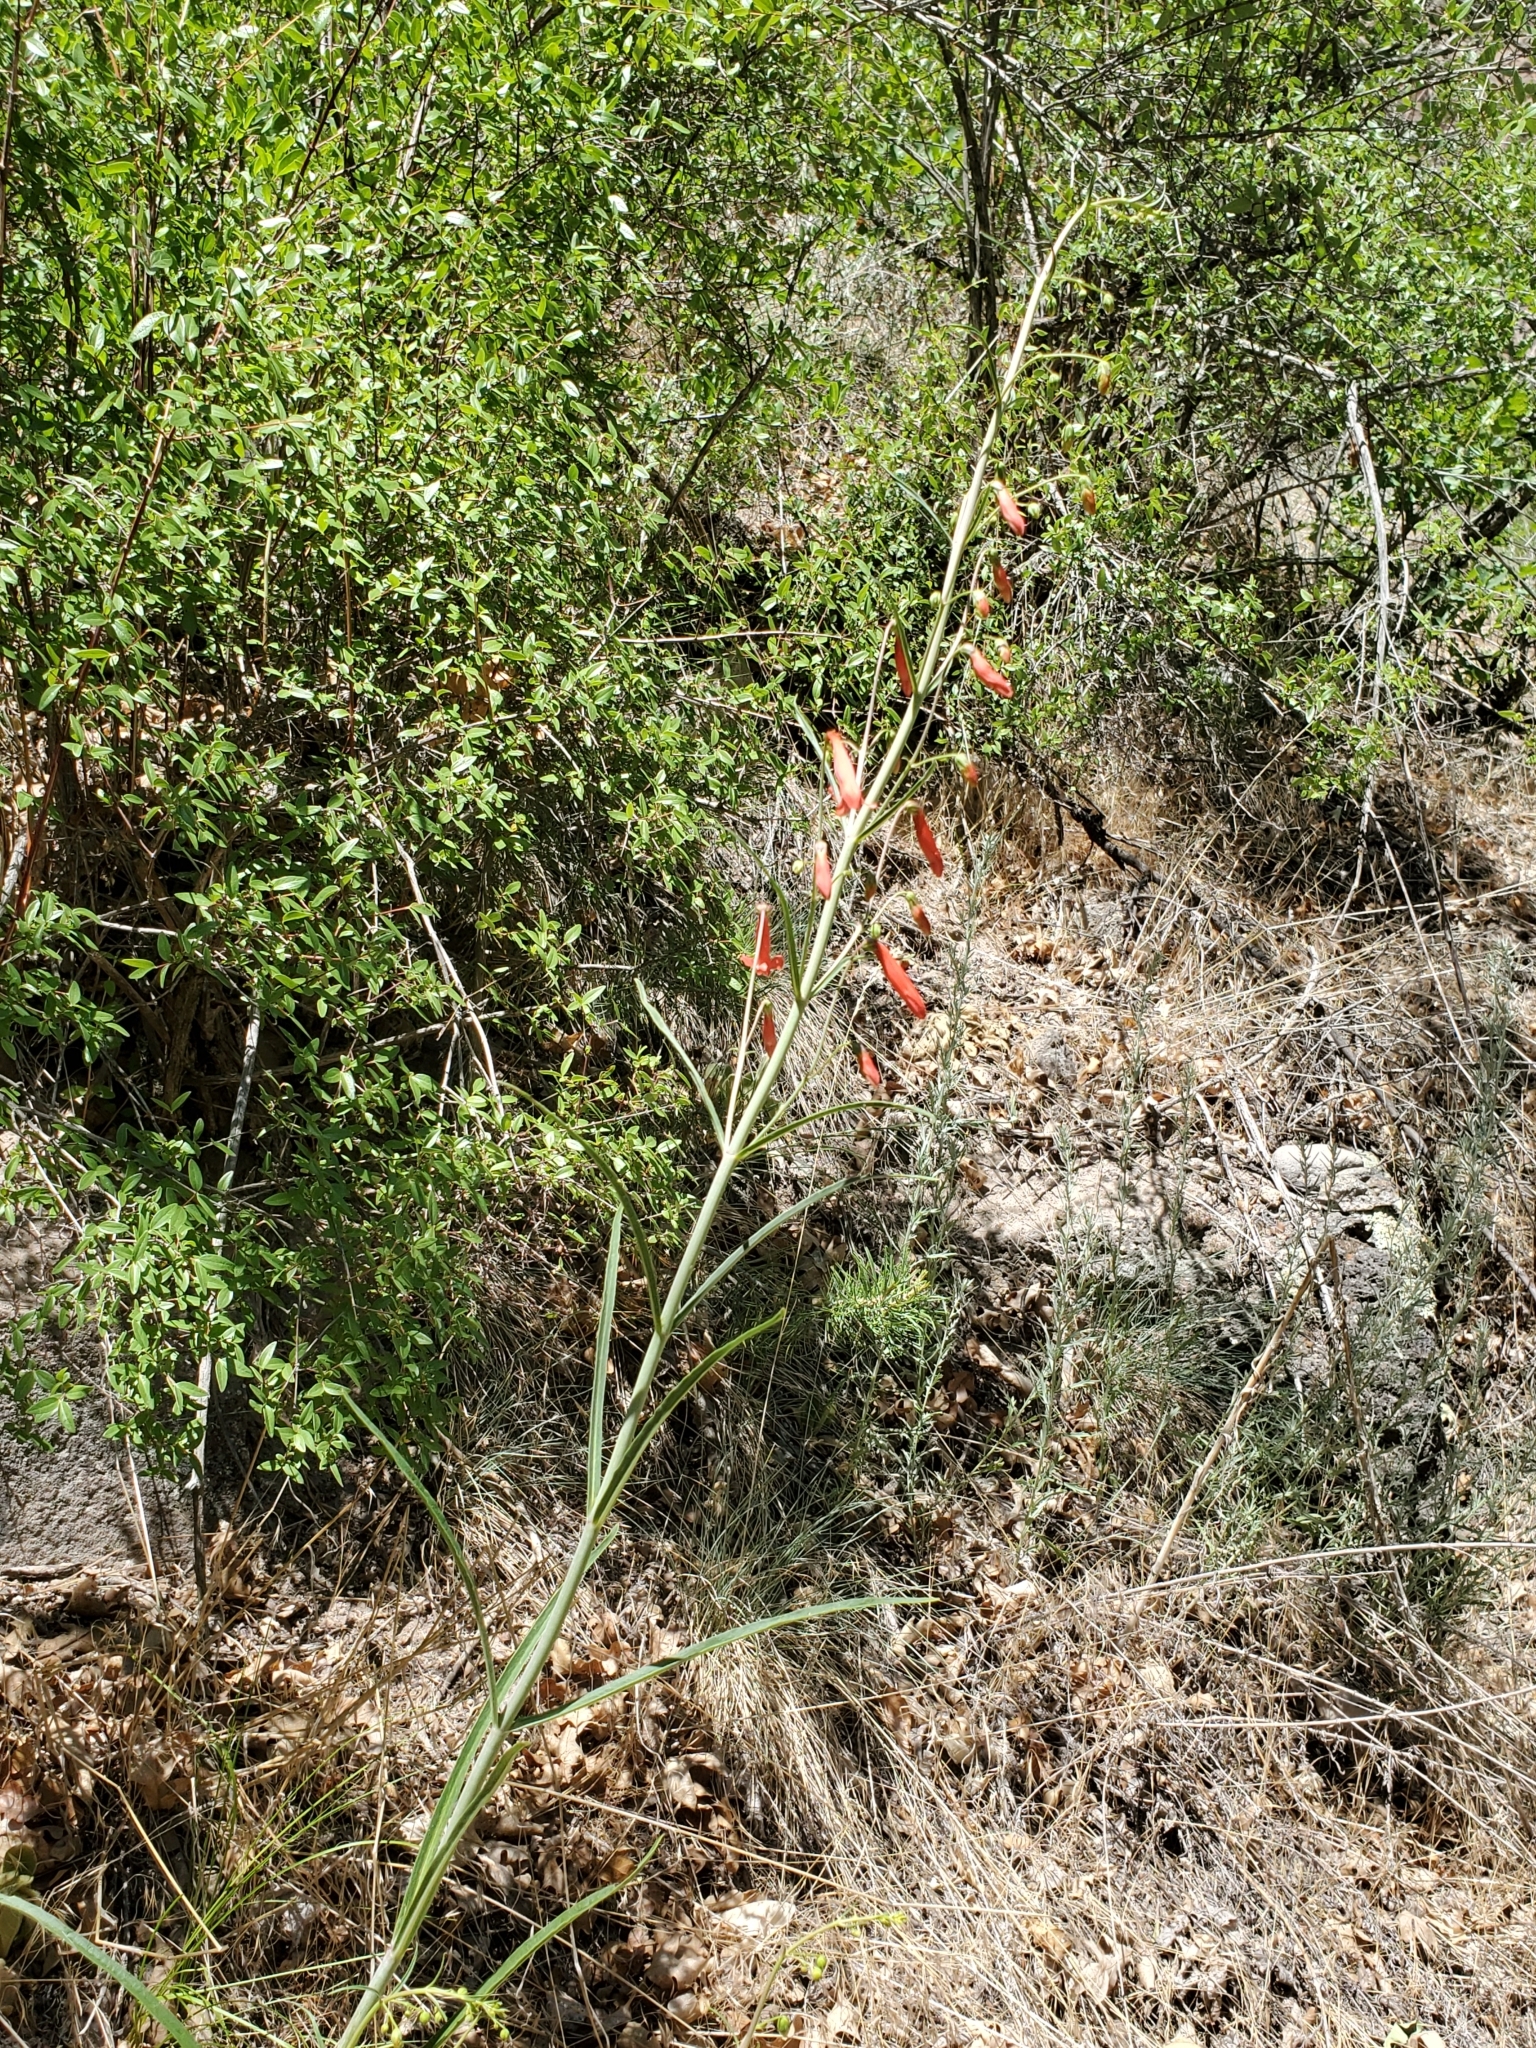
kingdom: Plantae
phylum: Tracheophyta
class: Magnoliopsida
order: Lamiales
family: Plantaginaceae
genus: Penstemon
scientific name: Penstemon barbatus
